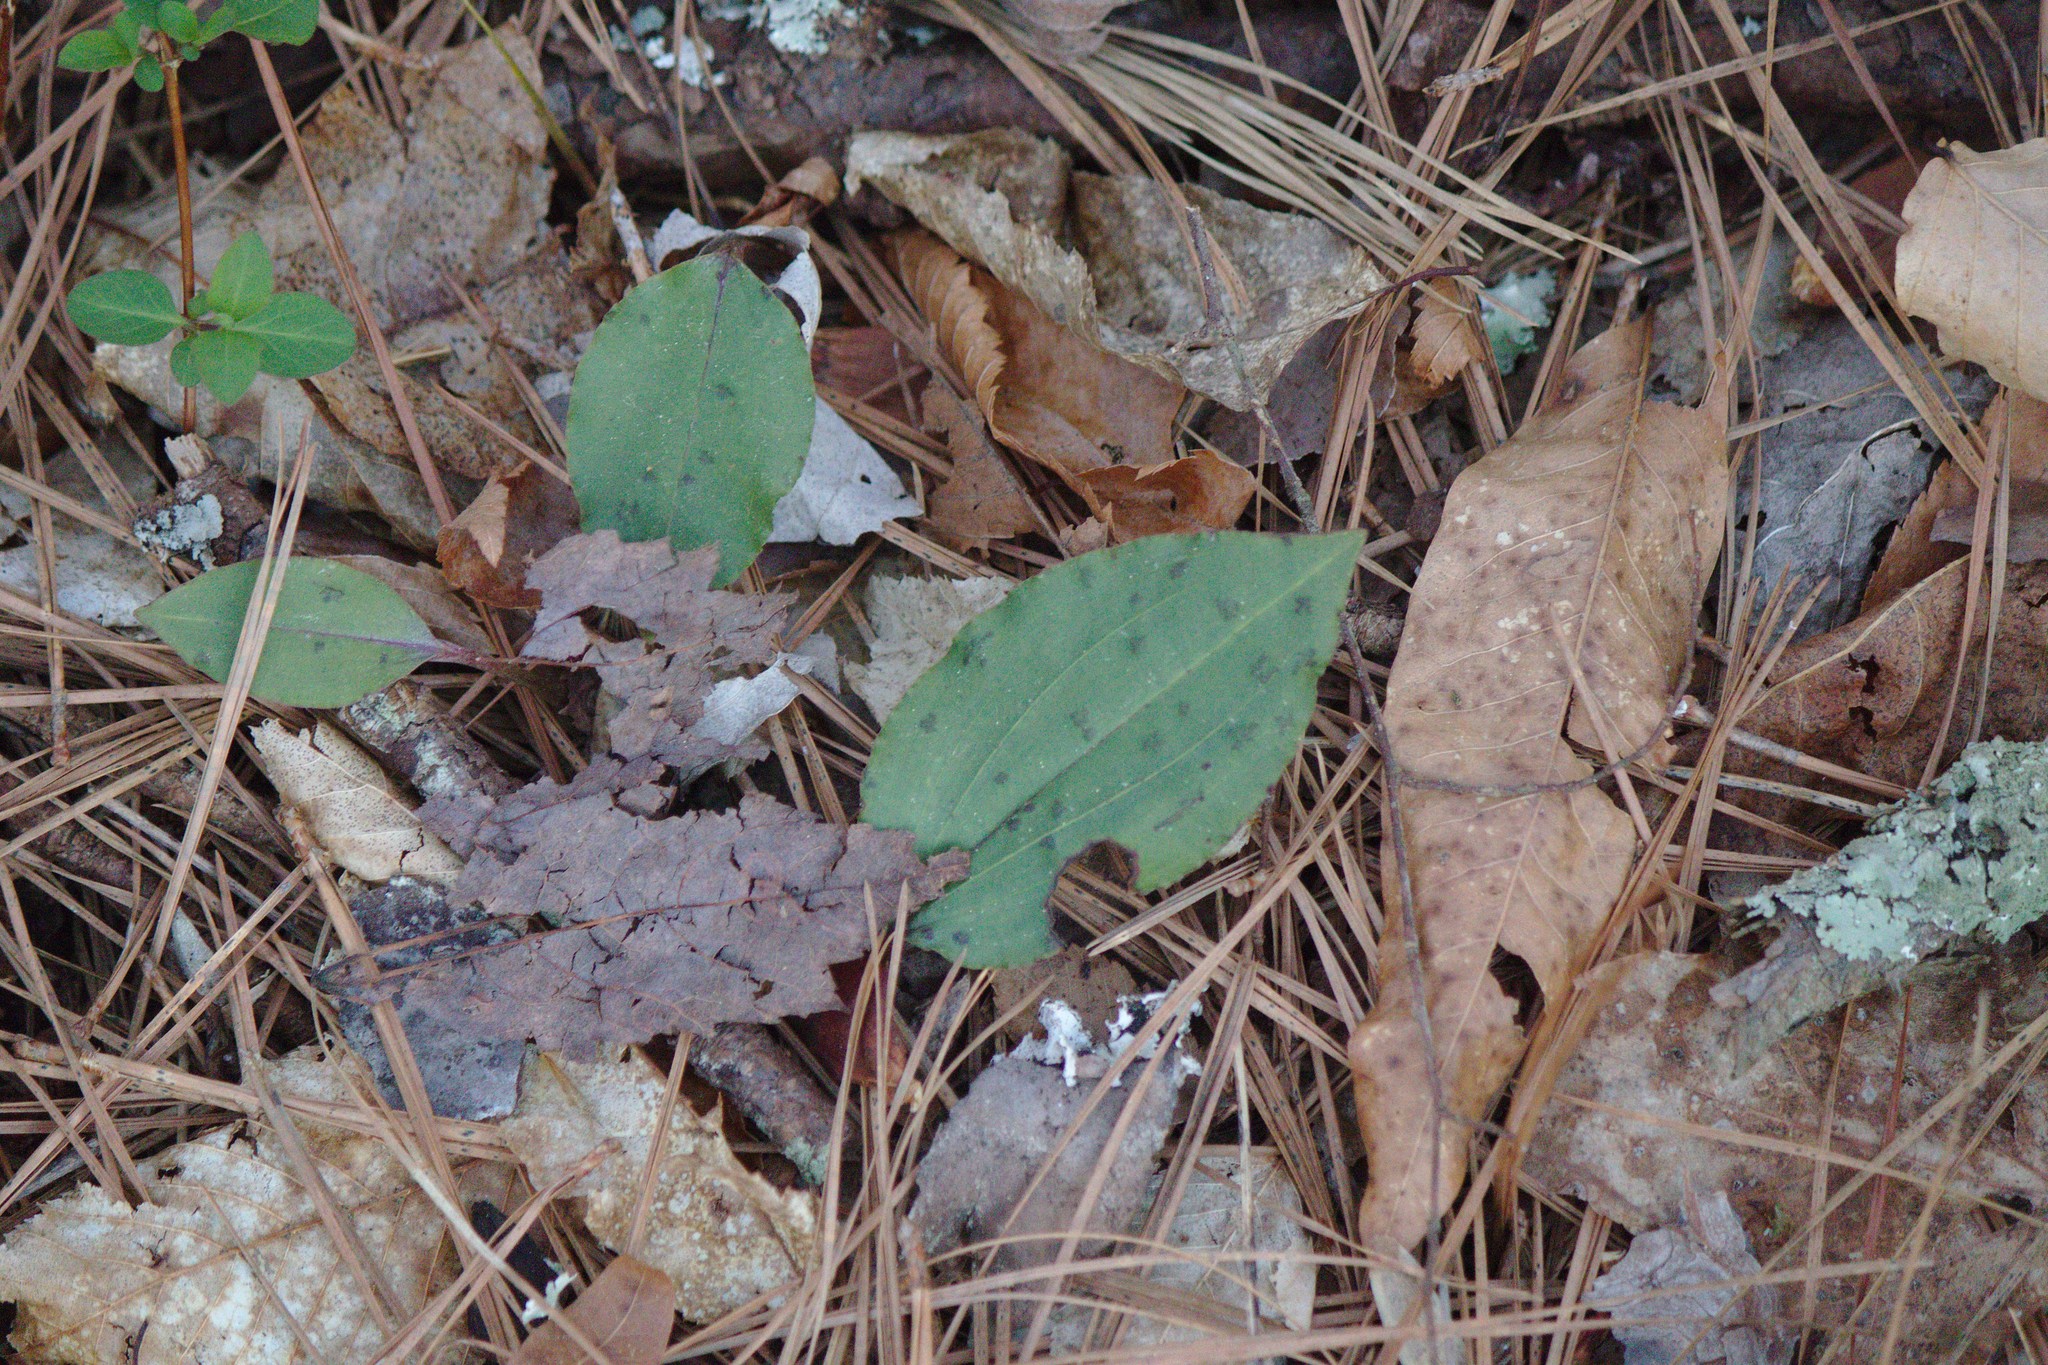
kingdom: Plantae
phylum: Tracheophyta
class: Liliopsida
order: Asparagales
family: Orchidaceae
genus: Tipularia
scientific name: Tipularia discolor
